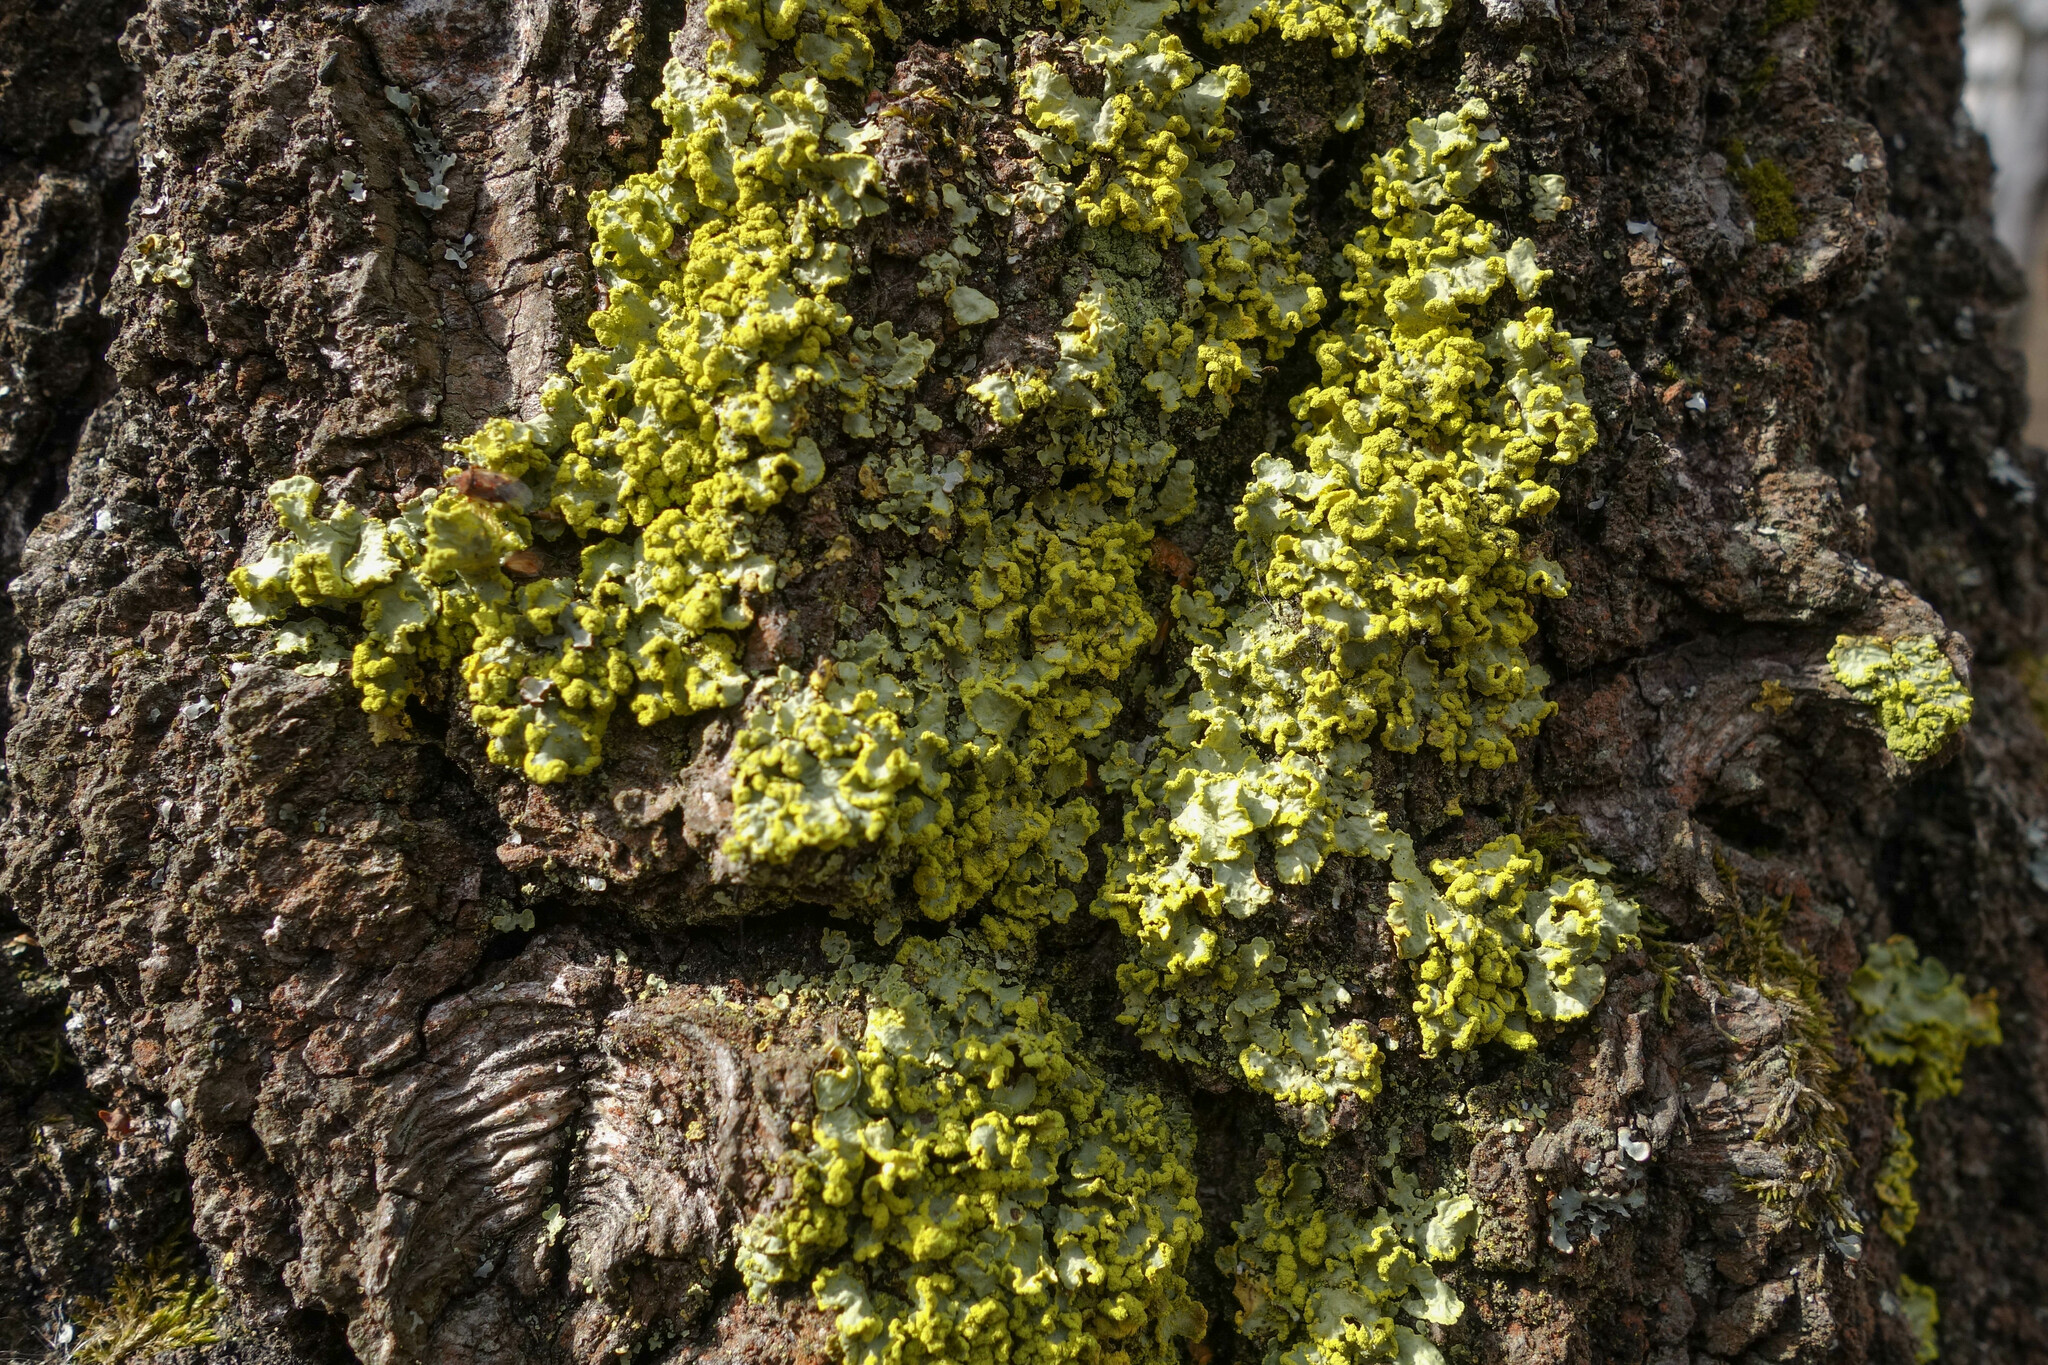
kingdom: Fungi
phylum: Ascomycota
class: Lecanoromycetes
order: Lecanorales
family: Parmeliaceae
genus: Vulpicida
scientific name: Vulpicida pinastri
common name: Powdered sunshine lichen
